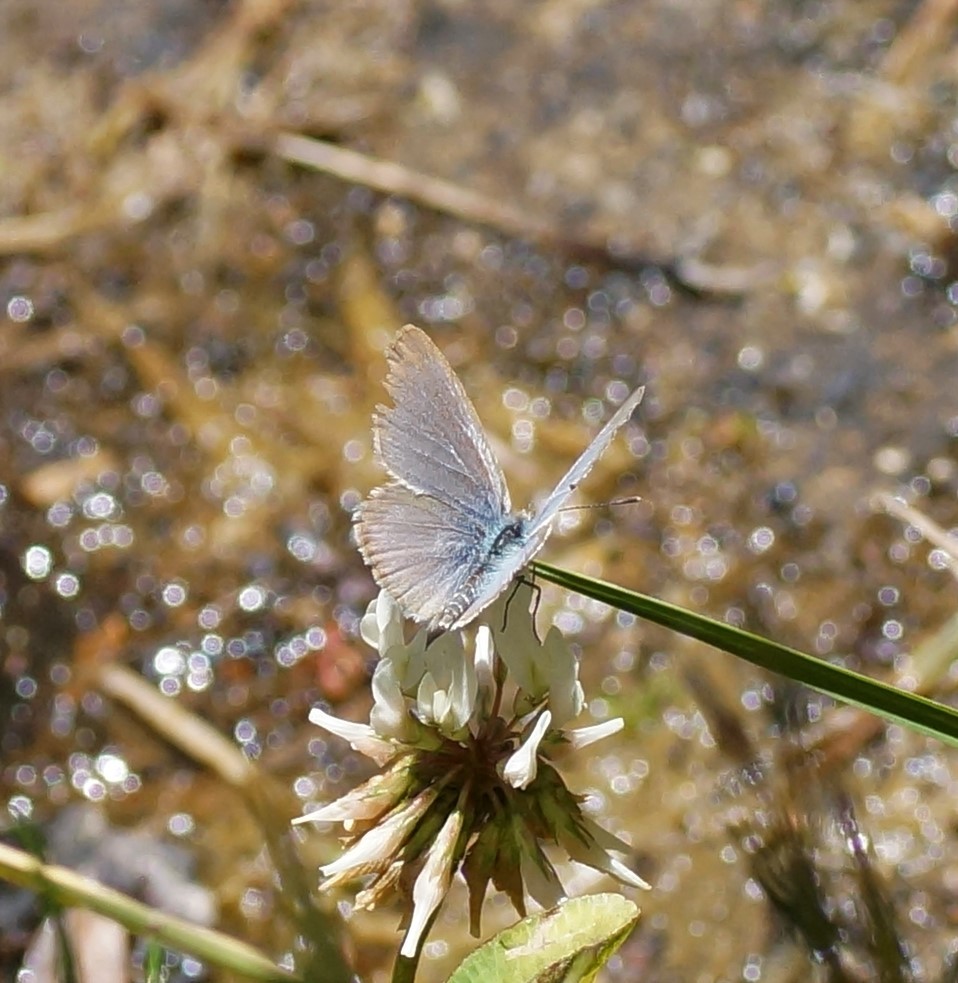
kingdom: Animalia
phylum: Arthropoda
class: Insecta
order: Lepidoptera
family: Lycaenidae
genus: Zizina
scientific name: Zizina otis
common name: Lesser grass blue
